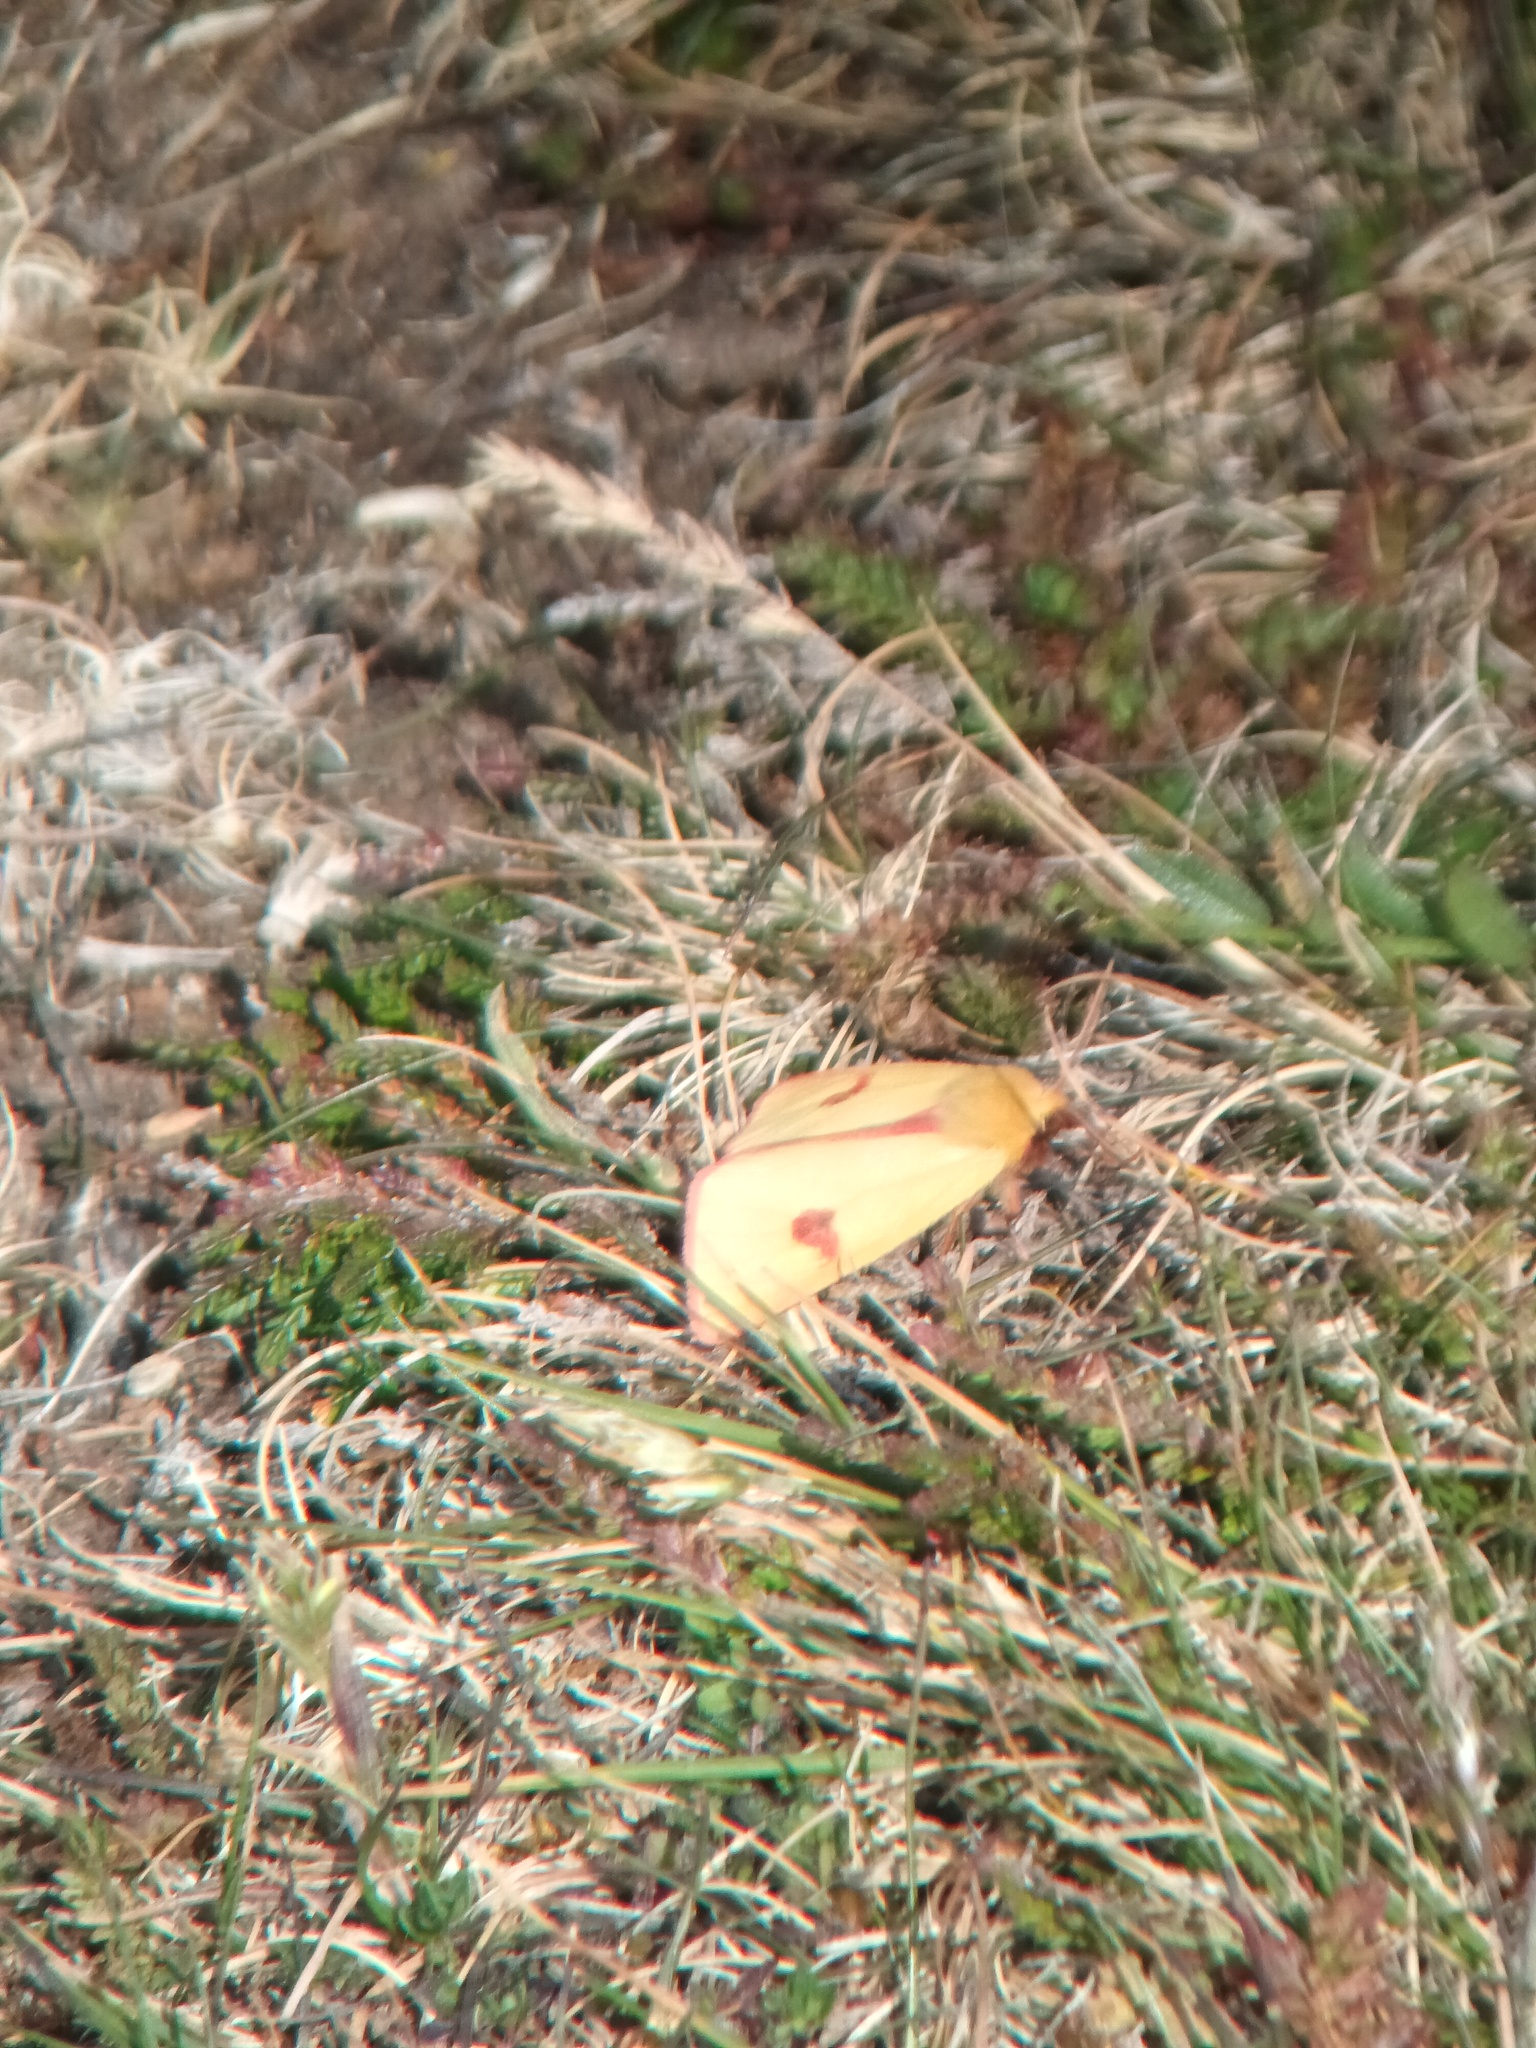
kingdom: Animalia
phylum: Arthropoda
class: Insecta
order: Lepidoptera
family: Erebidae
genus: Diacrisia
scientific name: Diacrisia sannio
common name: Clouded buff
